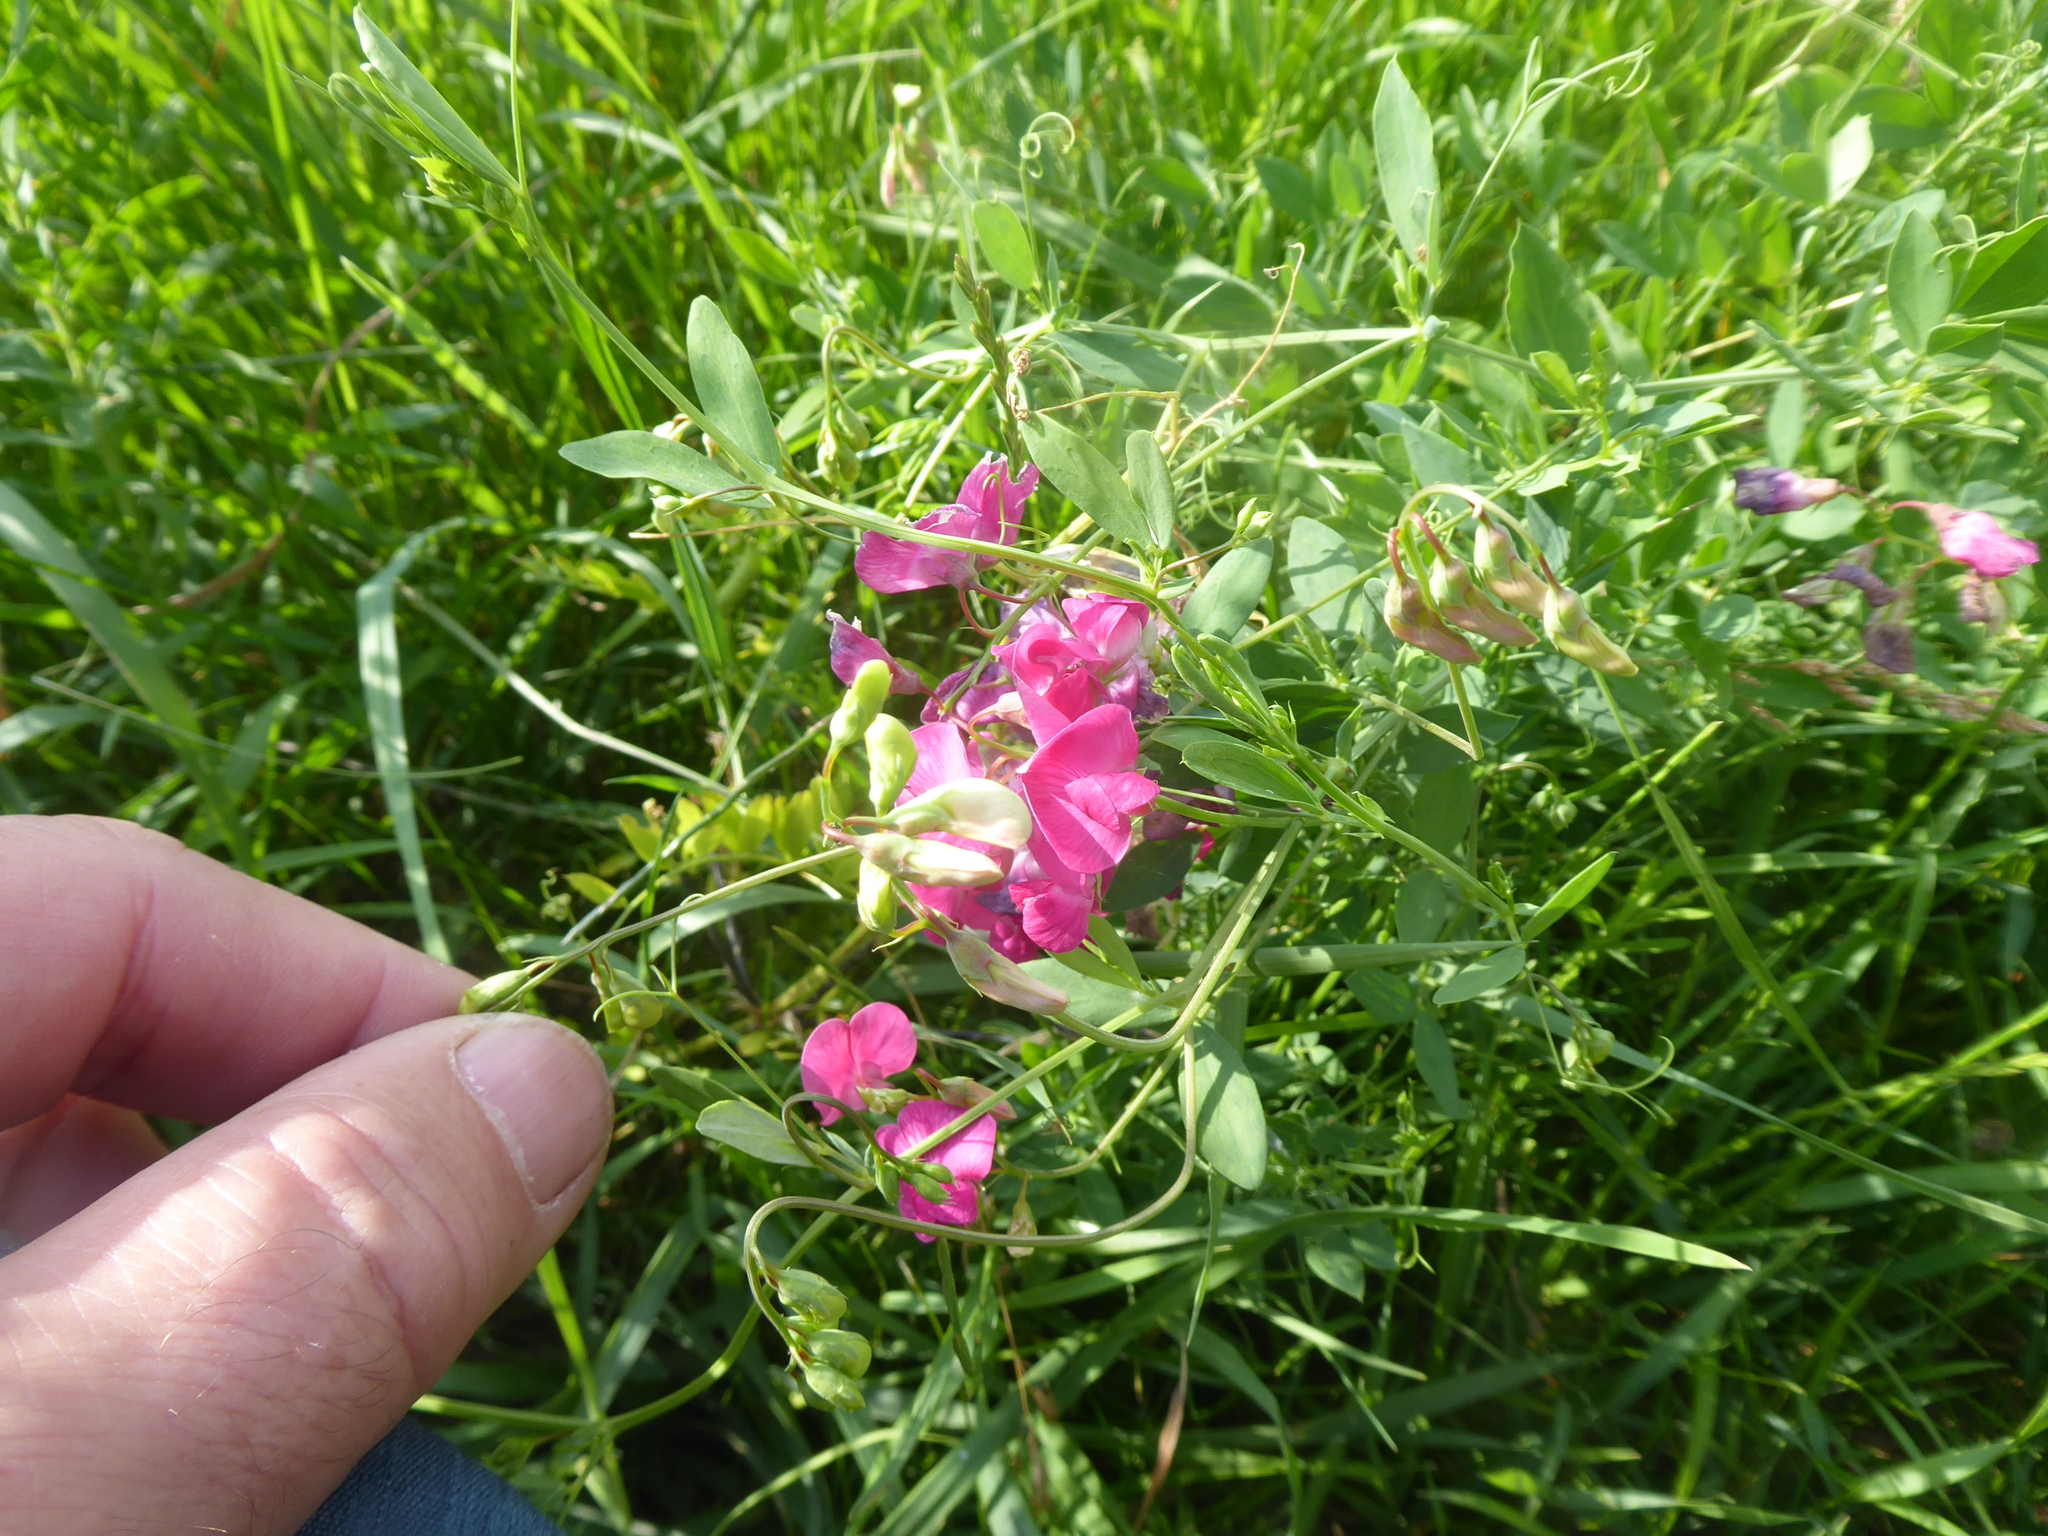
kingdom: Plantae
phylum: Tracheophyta
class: Magnoliopsida
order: Fabales
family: Fabaceae
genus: Lathyrus
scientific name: Lathyrus tuberosus
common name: Tuberous pea
